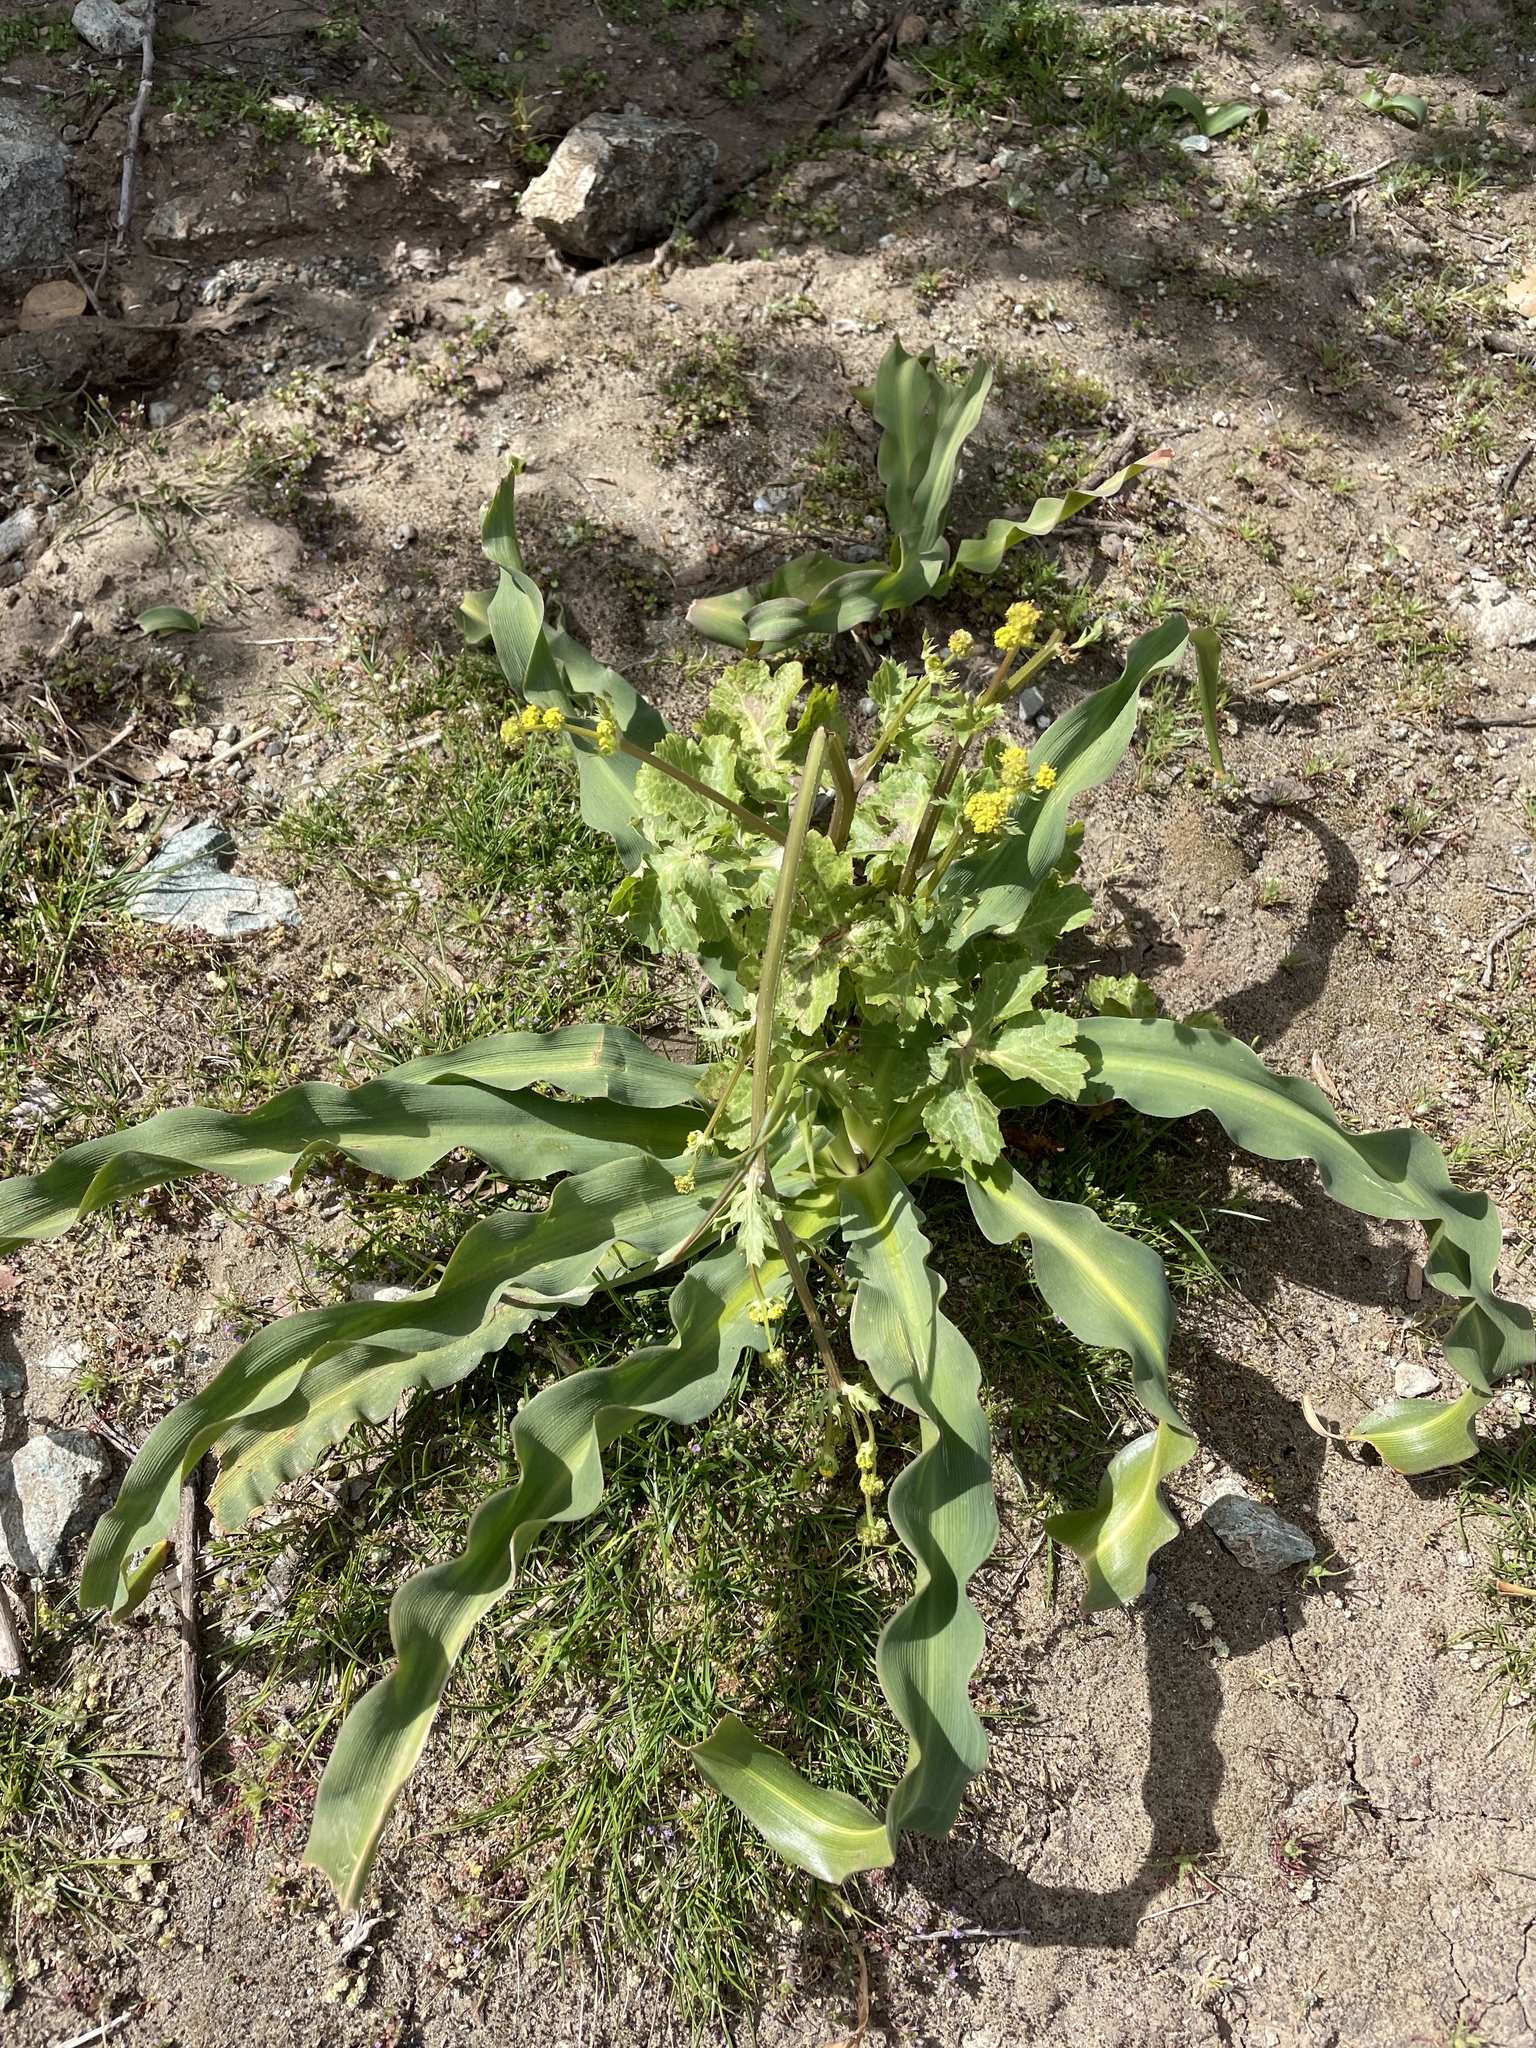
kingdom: Plantae
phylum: Tracheophyta
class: Liliopsida
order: Asparagales
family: Asparagaceae
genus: Chlorogalum
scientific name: Chlorogalum pomeridianum
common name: Amole
